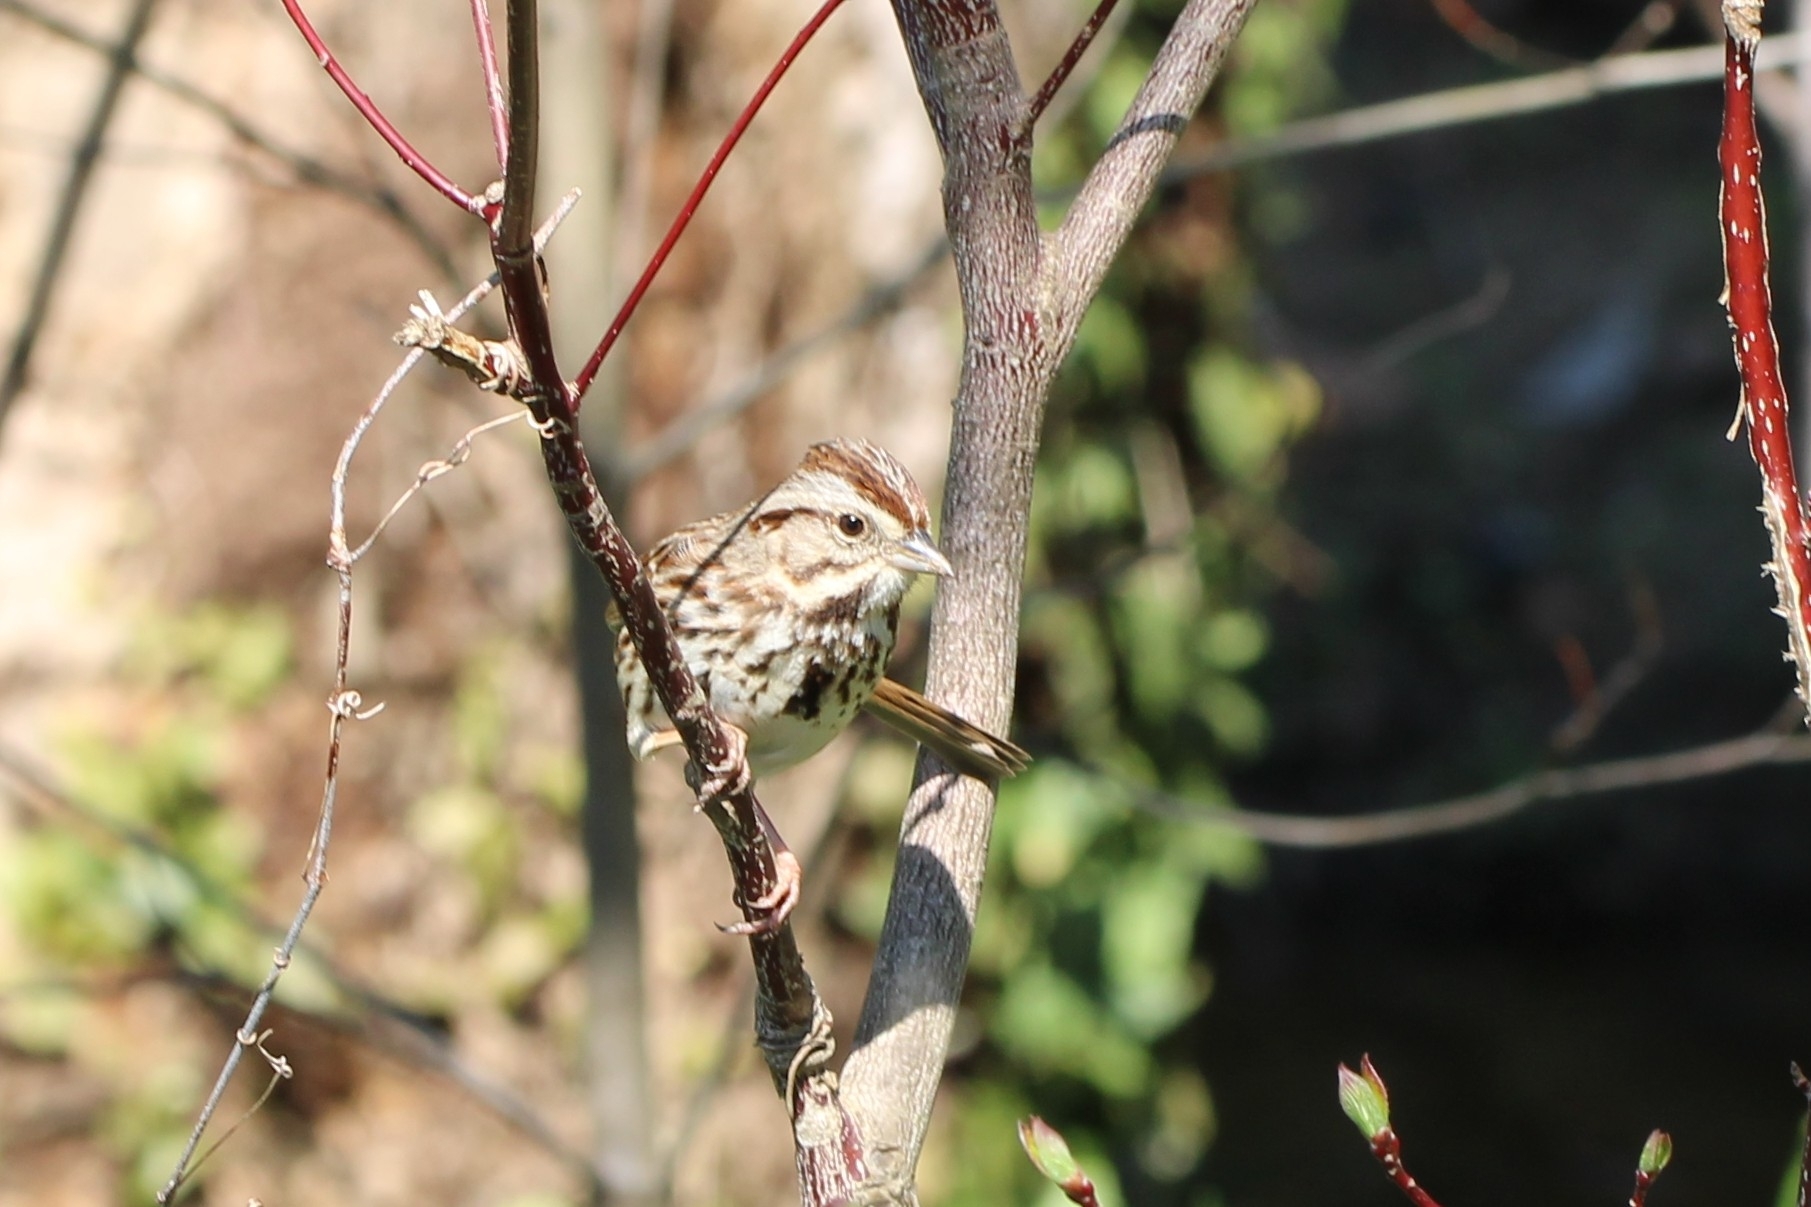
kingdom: Animalia
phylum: Chordata
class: Aves
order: Passeriformes
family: Passerellidae
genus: Melospiza
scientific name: Melospiza melodia
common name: Song sparrow
